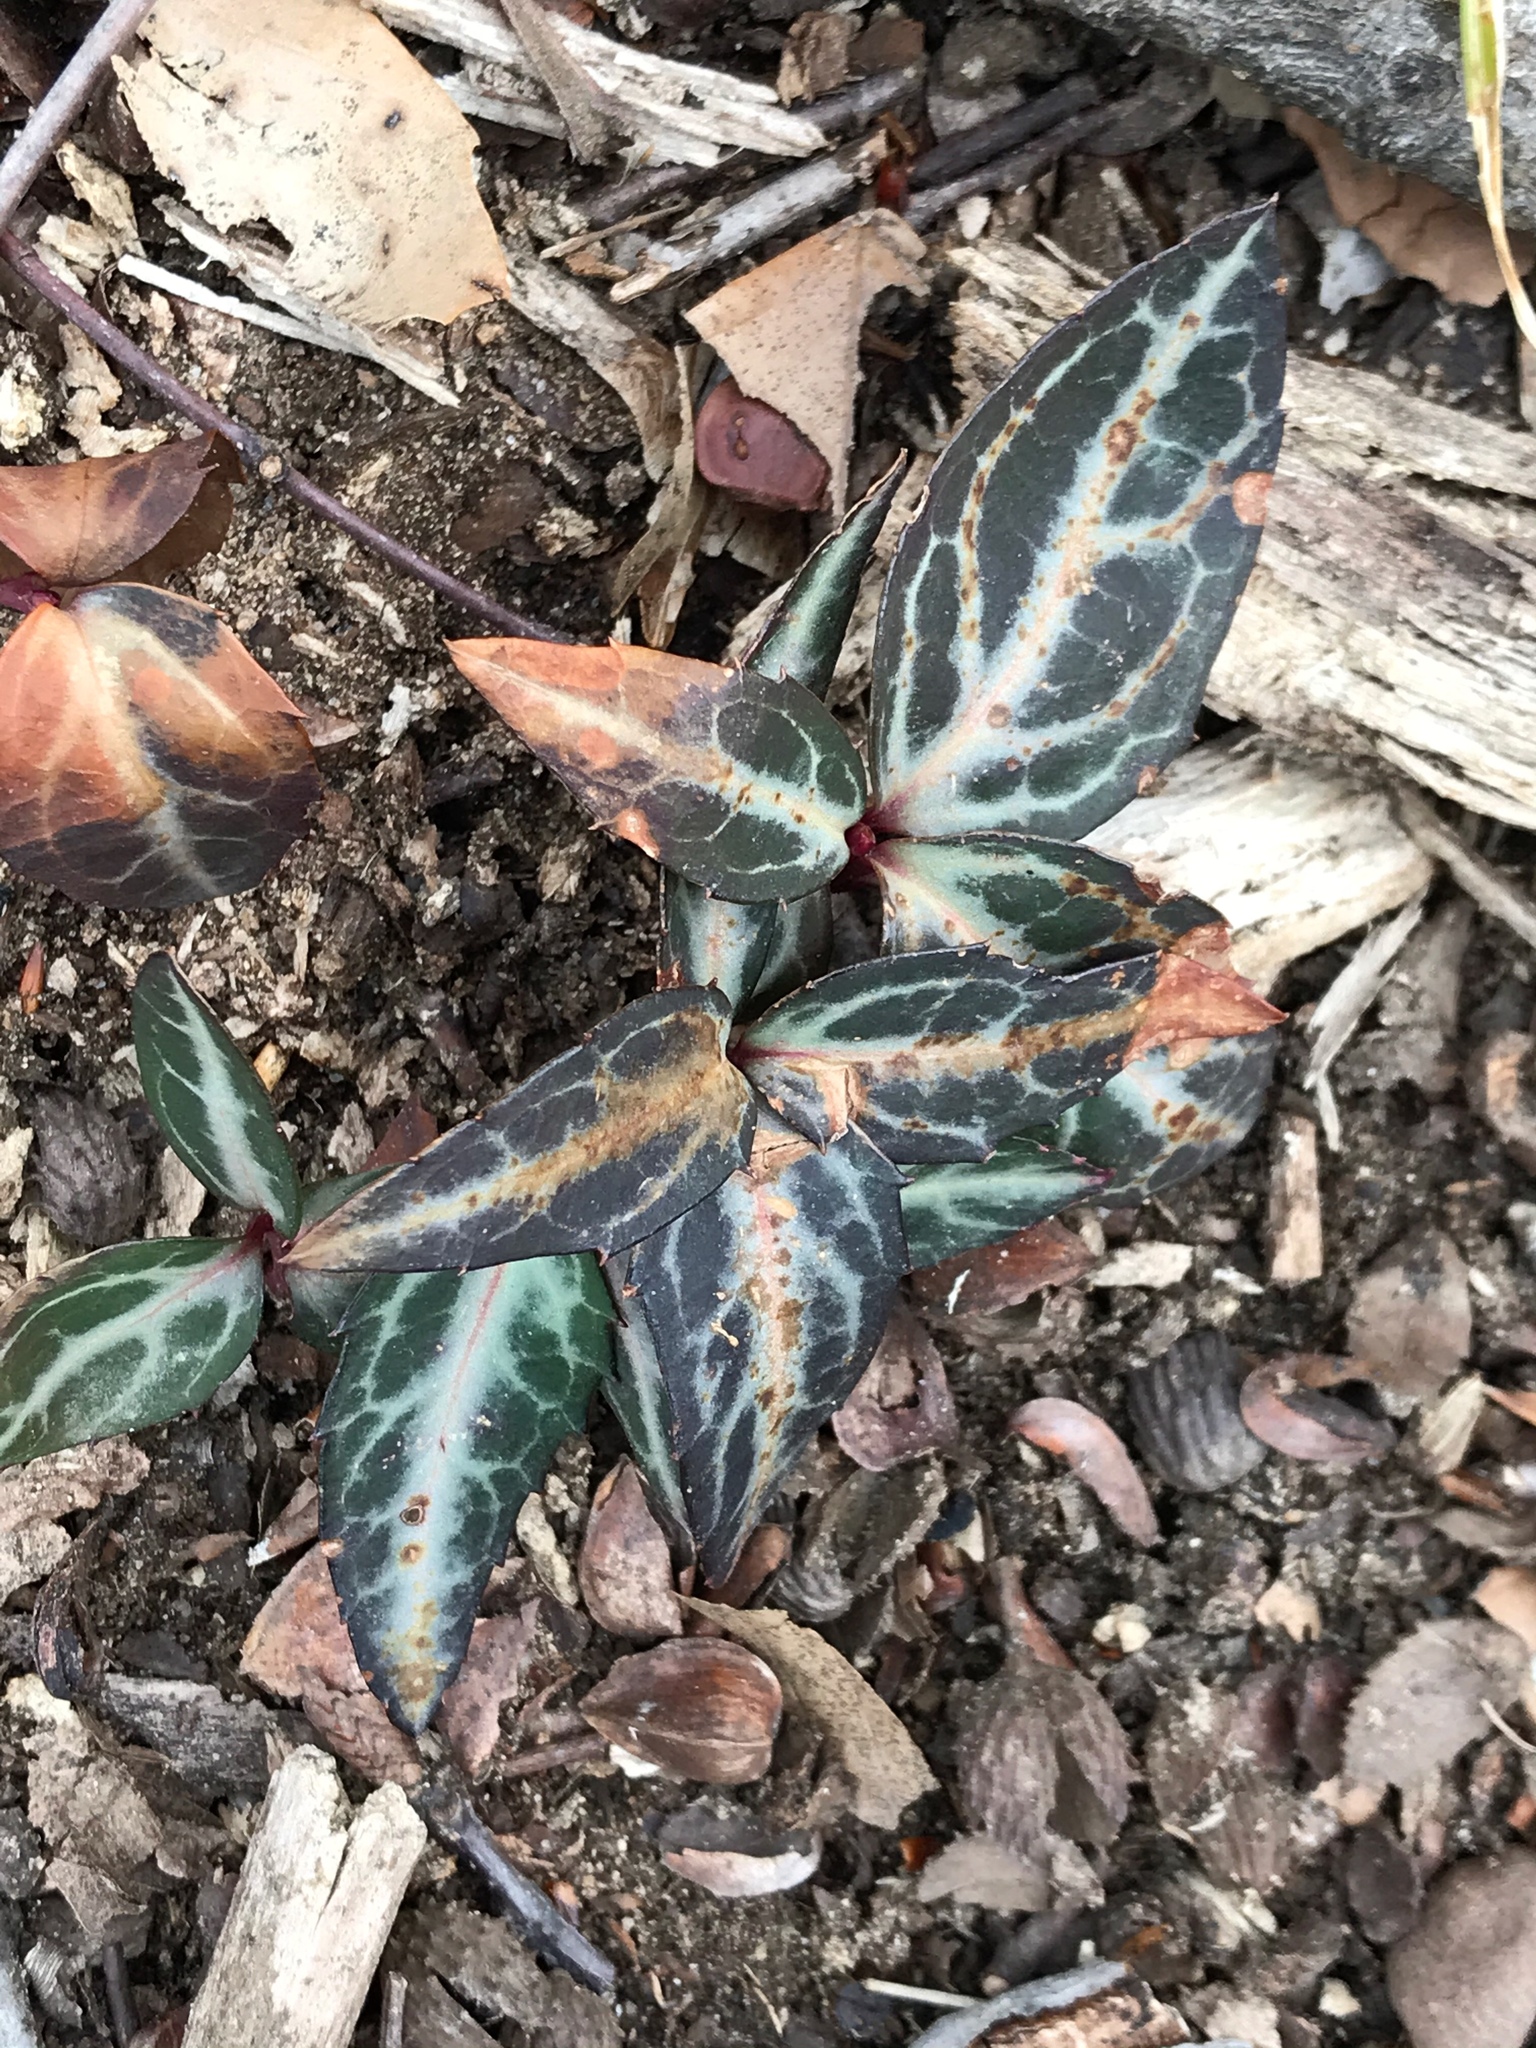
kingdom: Plantae
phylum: Tracheophyta
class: Magnoliopsida
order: Ericales
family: Ericaceae
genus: Chimaphila
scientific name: Chimaphila maculata
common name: Spotted pipsissewa
